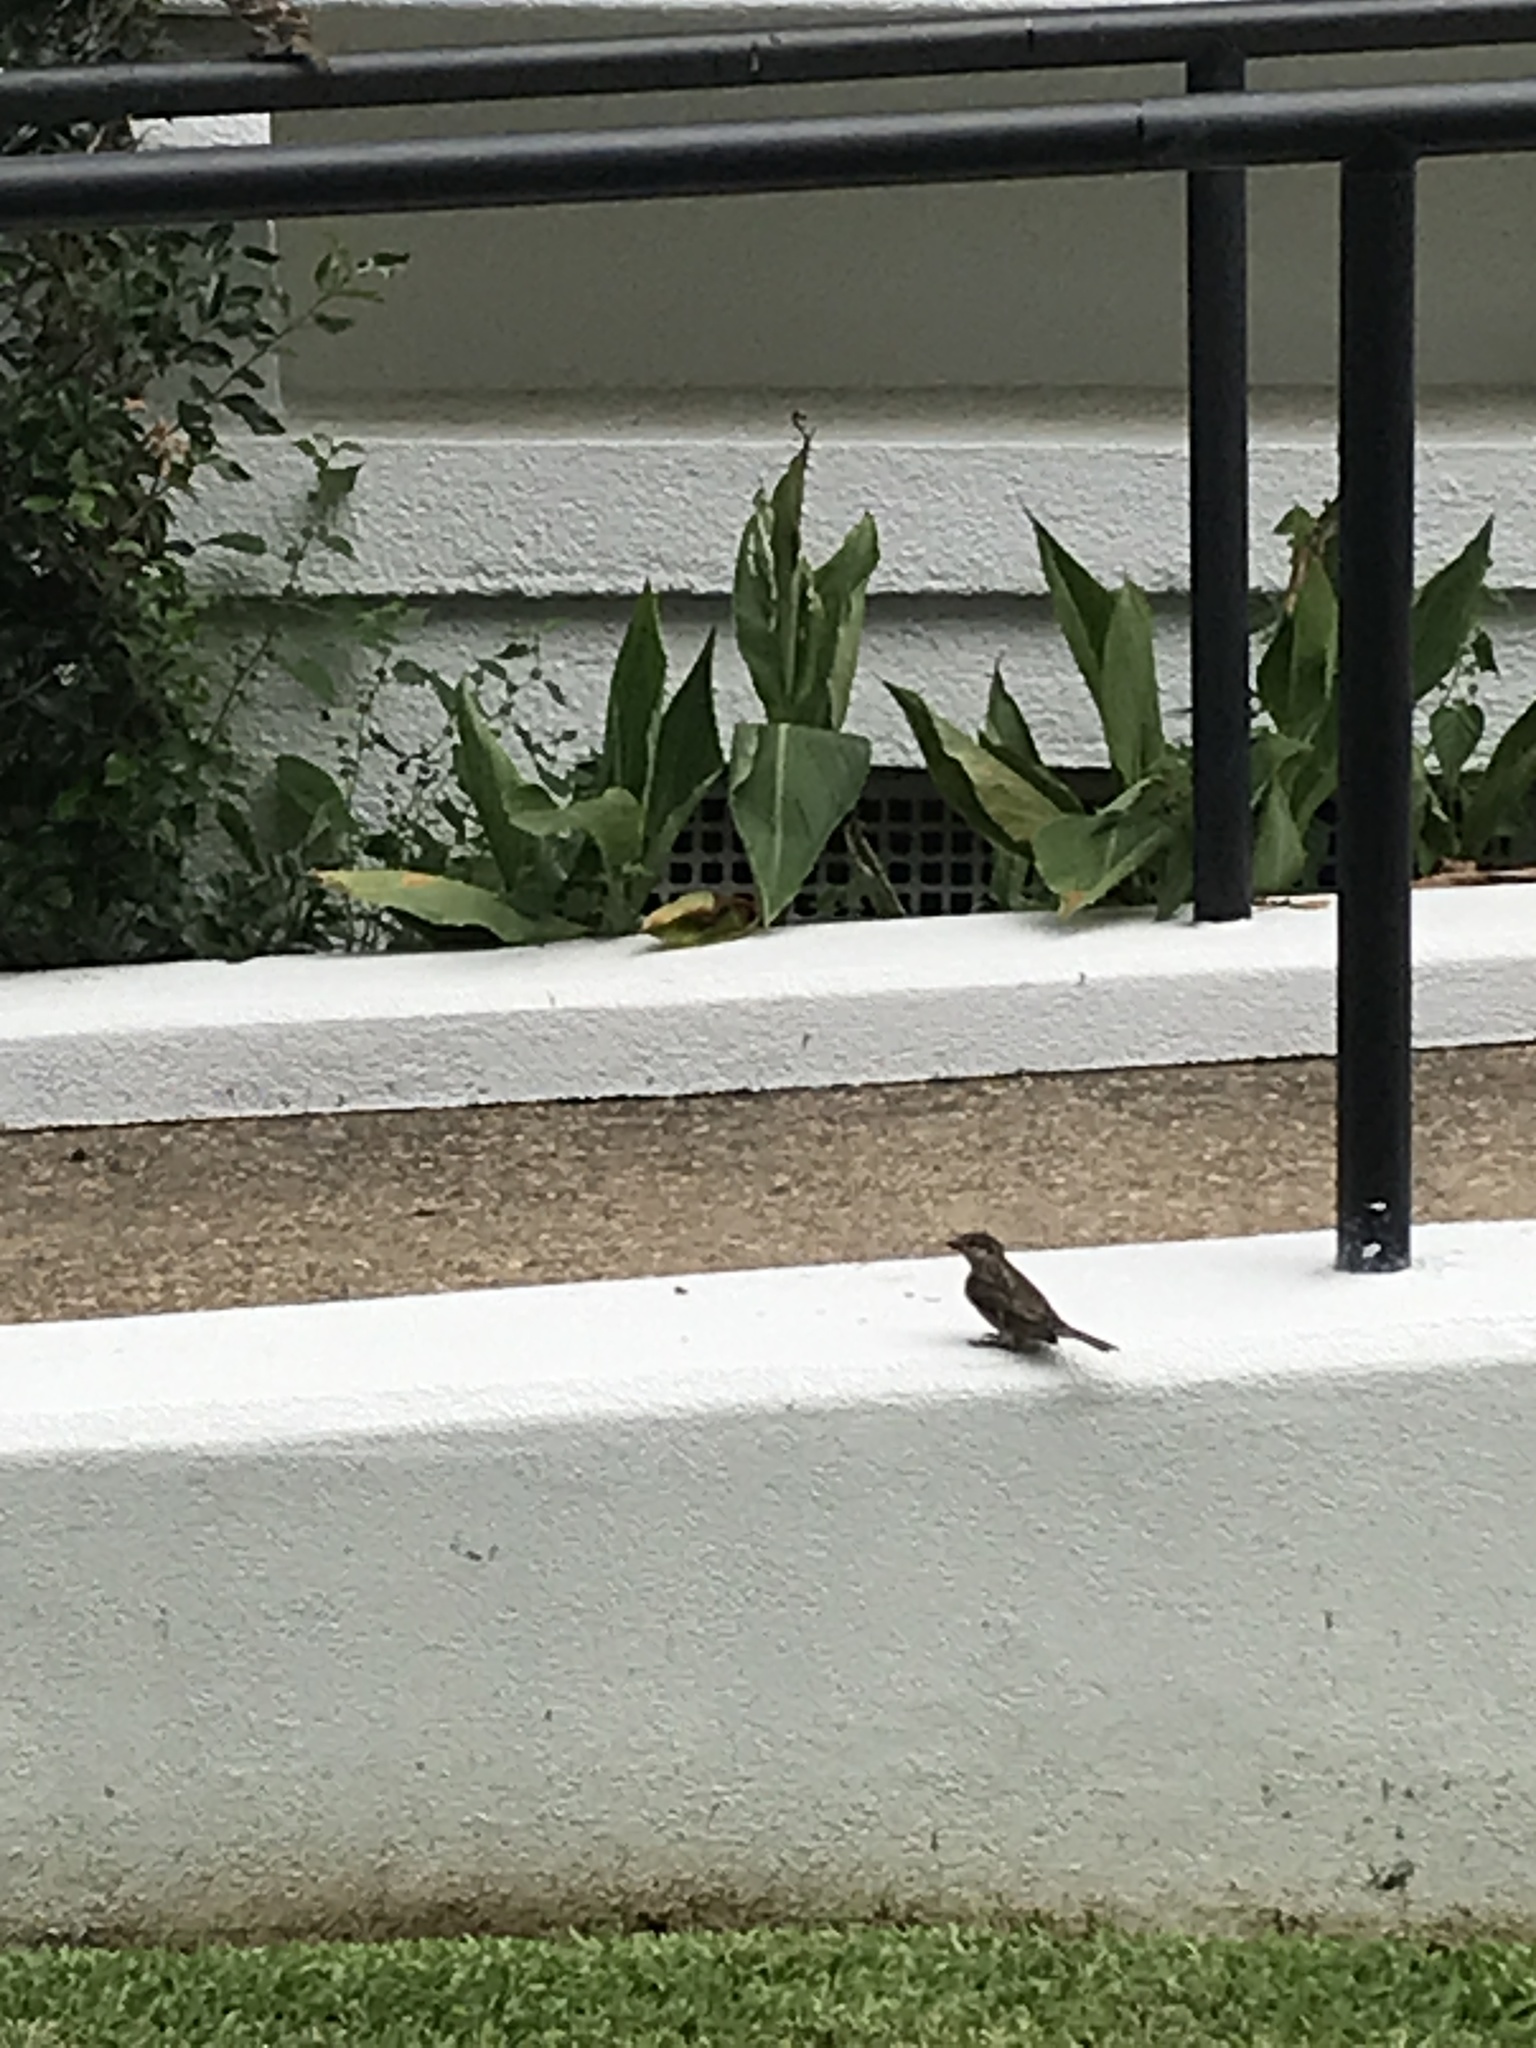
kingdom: Animalia
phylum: Chordata
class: Aves
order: Passeriformes
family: Passeridae
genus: Passer
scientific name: Passer domesticus
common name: House sparrow
